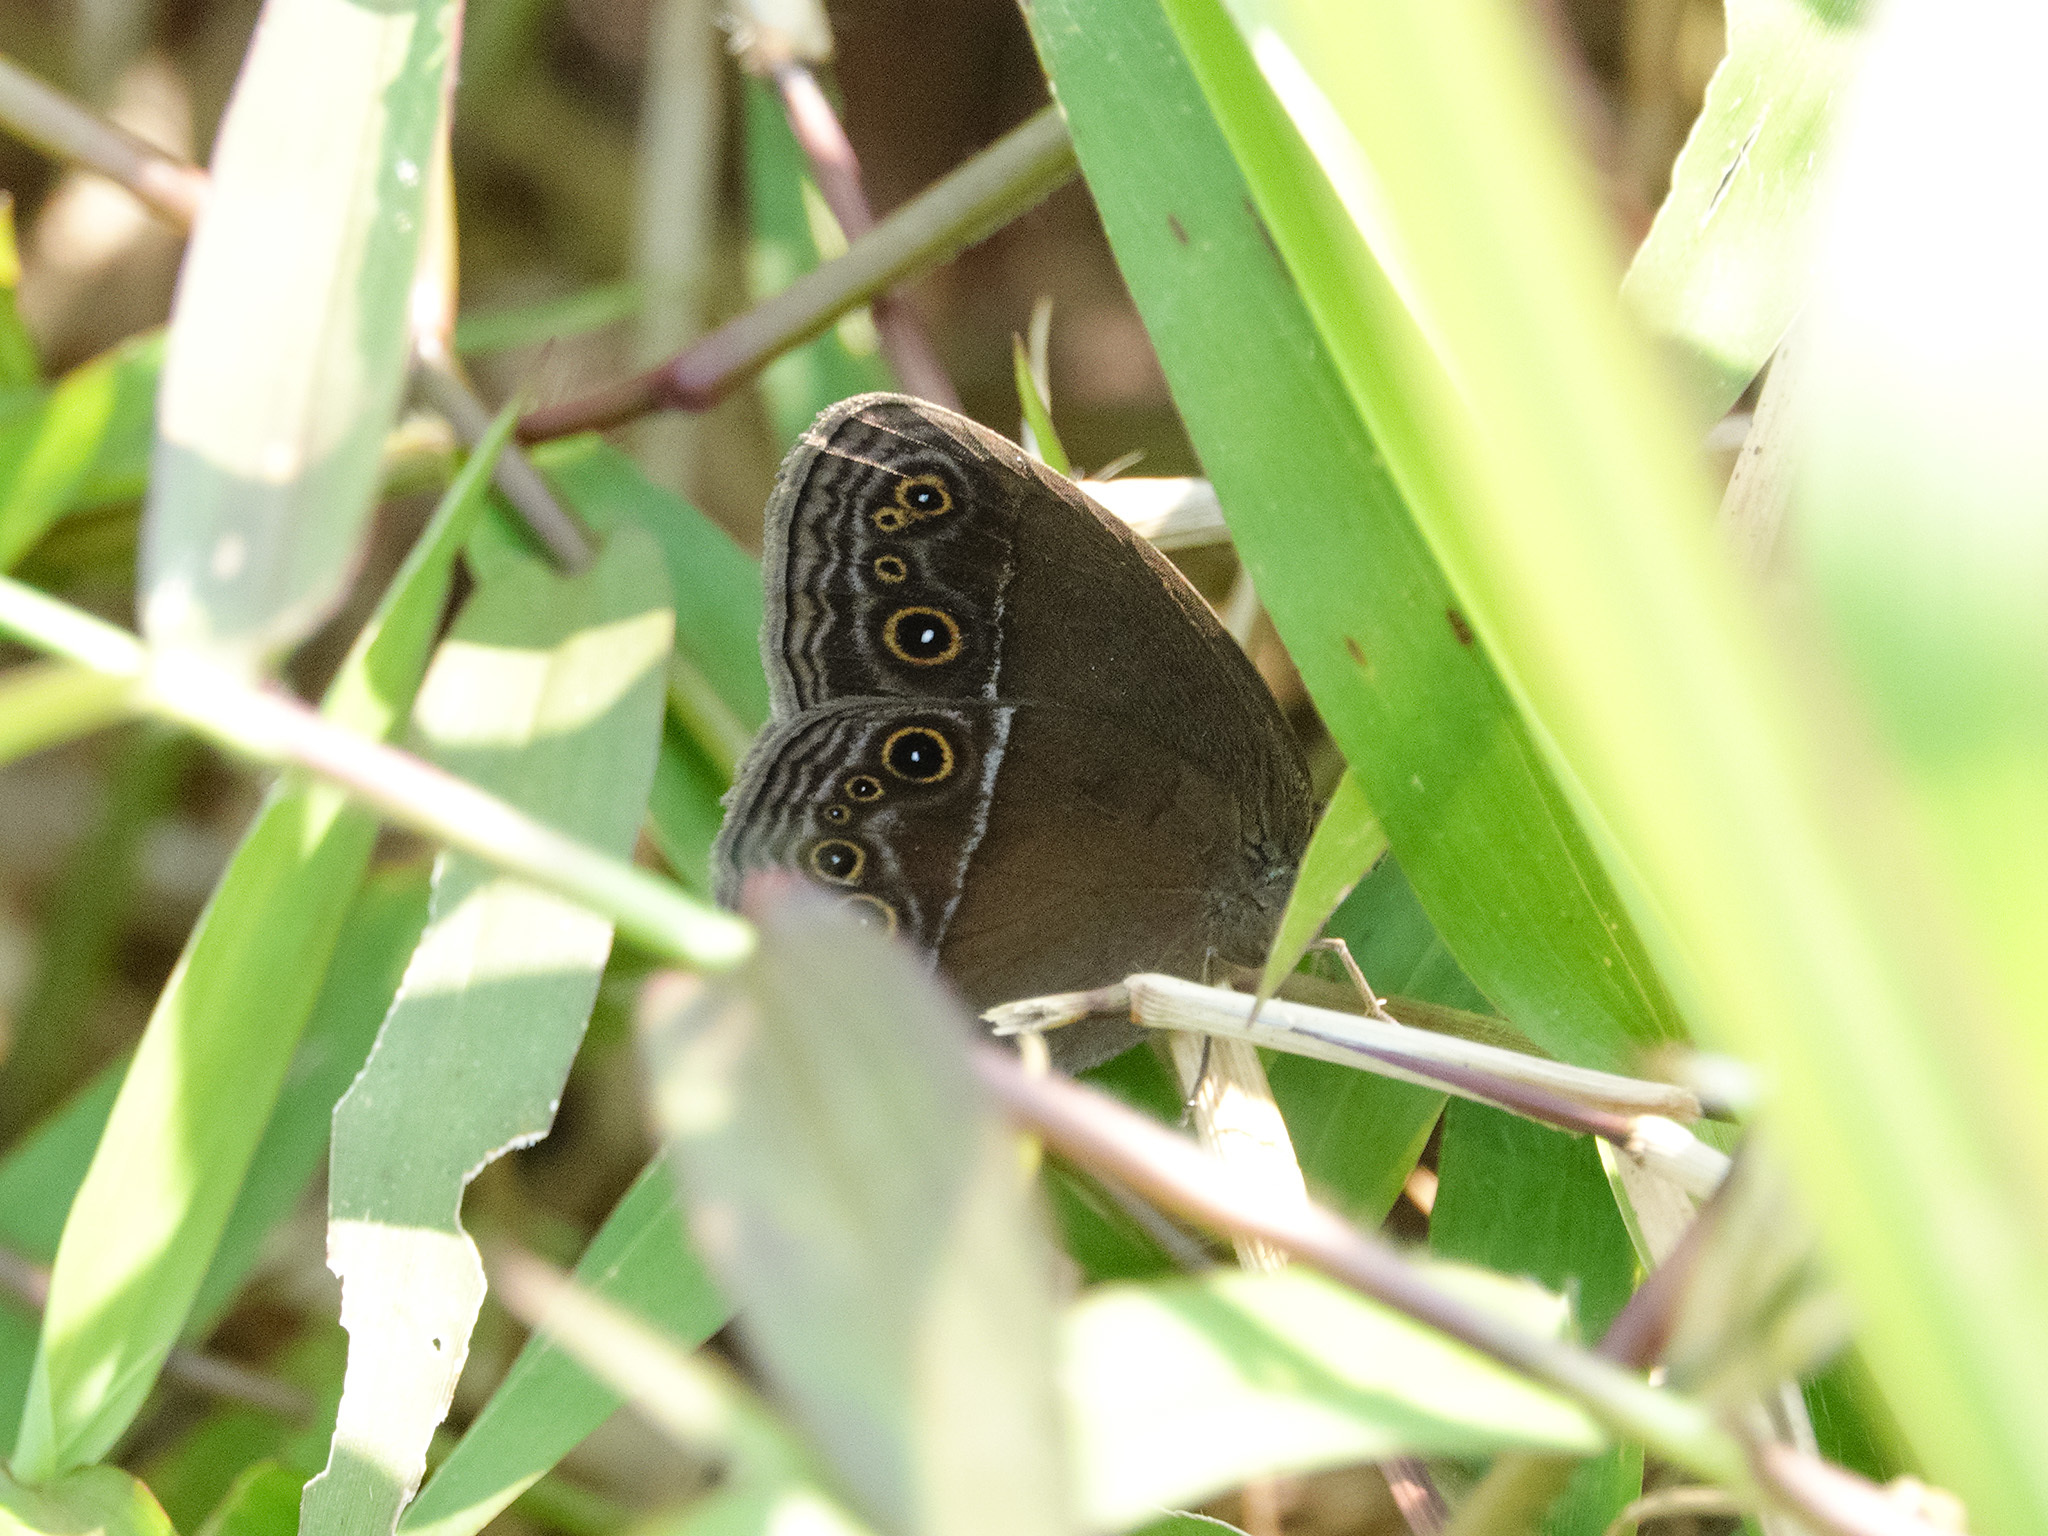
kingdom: Animalia
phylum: Arthropoda
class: Insecta
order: Lepidoptera
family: Nymphalidae
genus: Mycalesis
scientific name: Mycalesis perseus
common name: Dingy bushbrown
